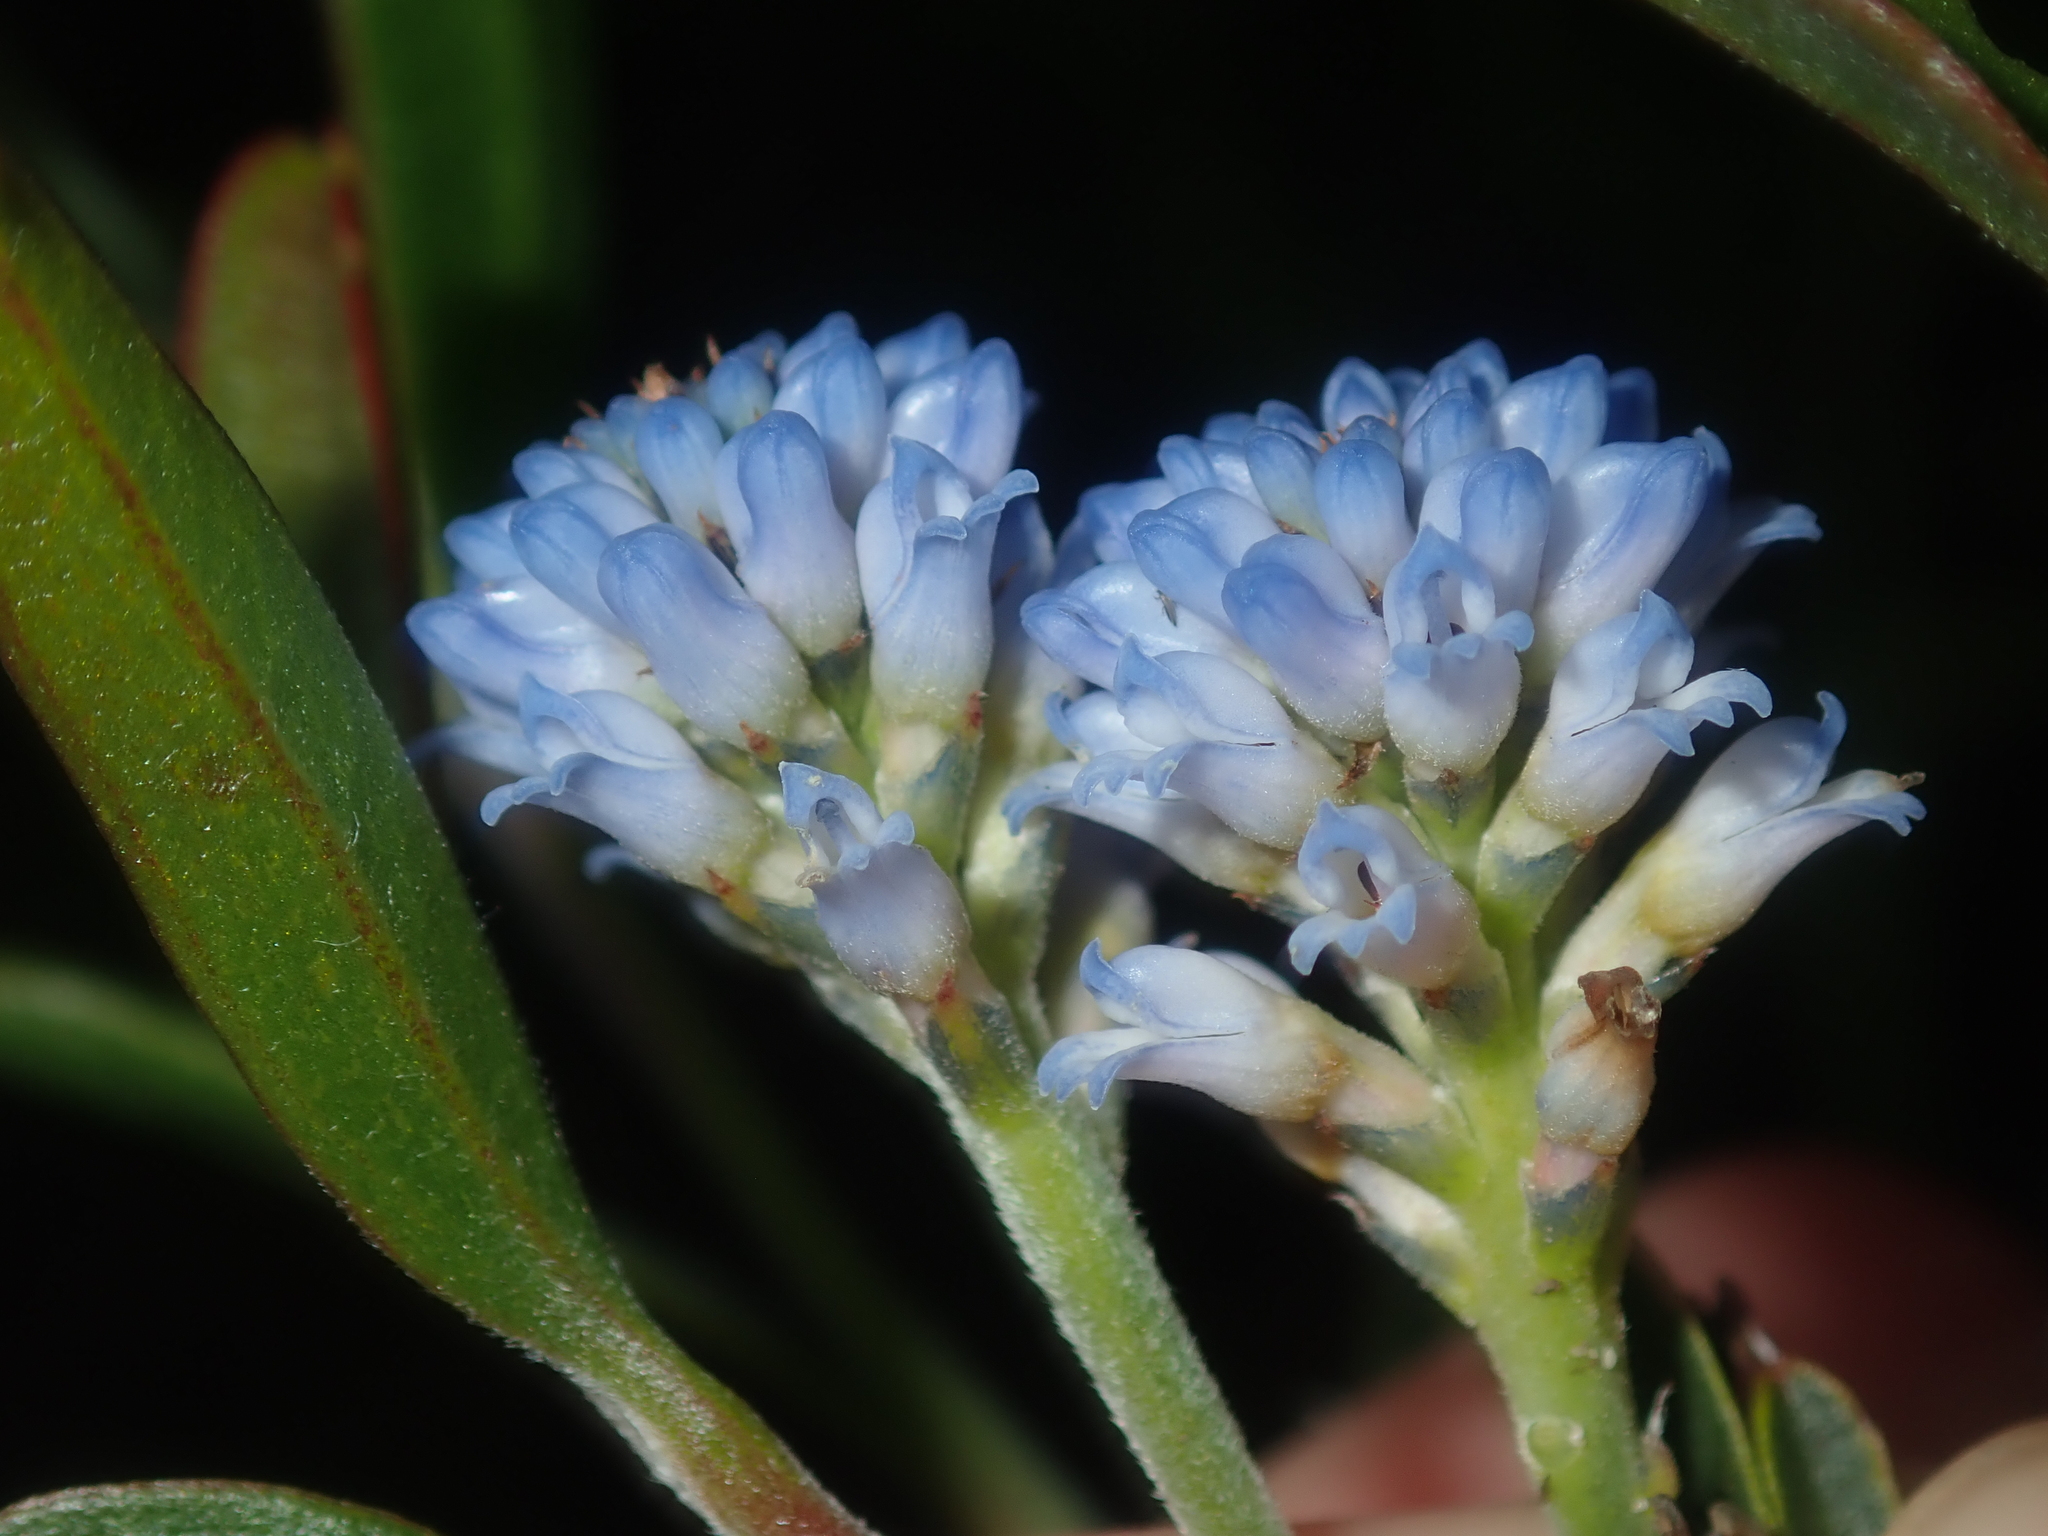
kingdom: Plantae
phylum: Tracheophyta
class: Magnoliopsida
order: Proteales
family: Proteaceae
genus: Conospermum
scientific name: Conospermum nervosum
